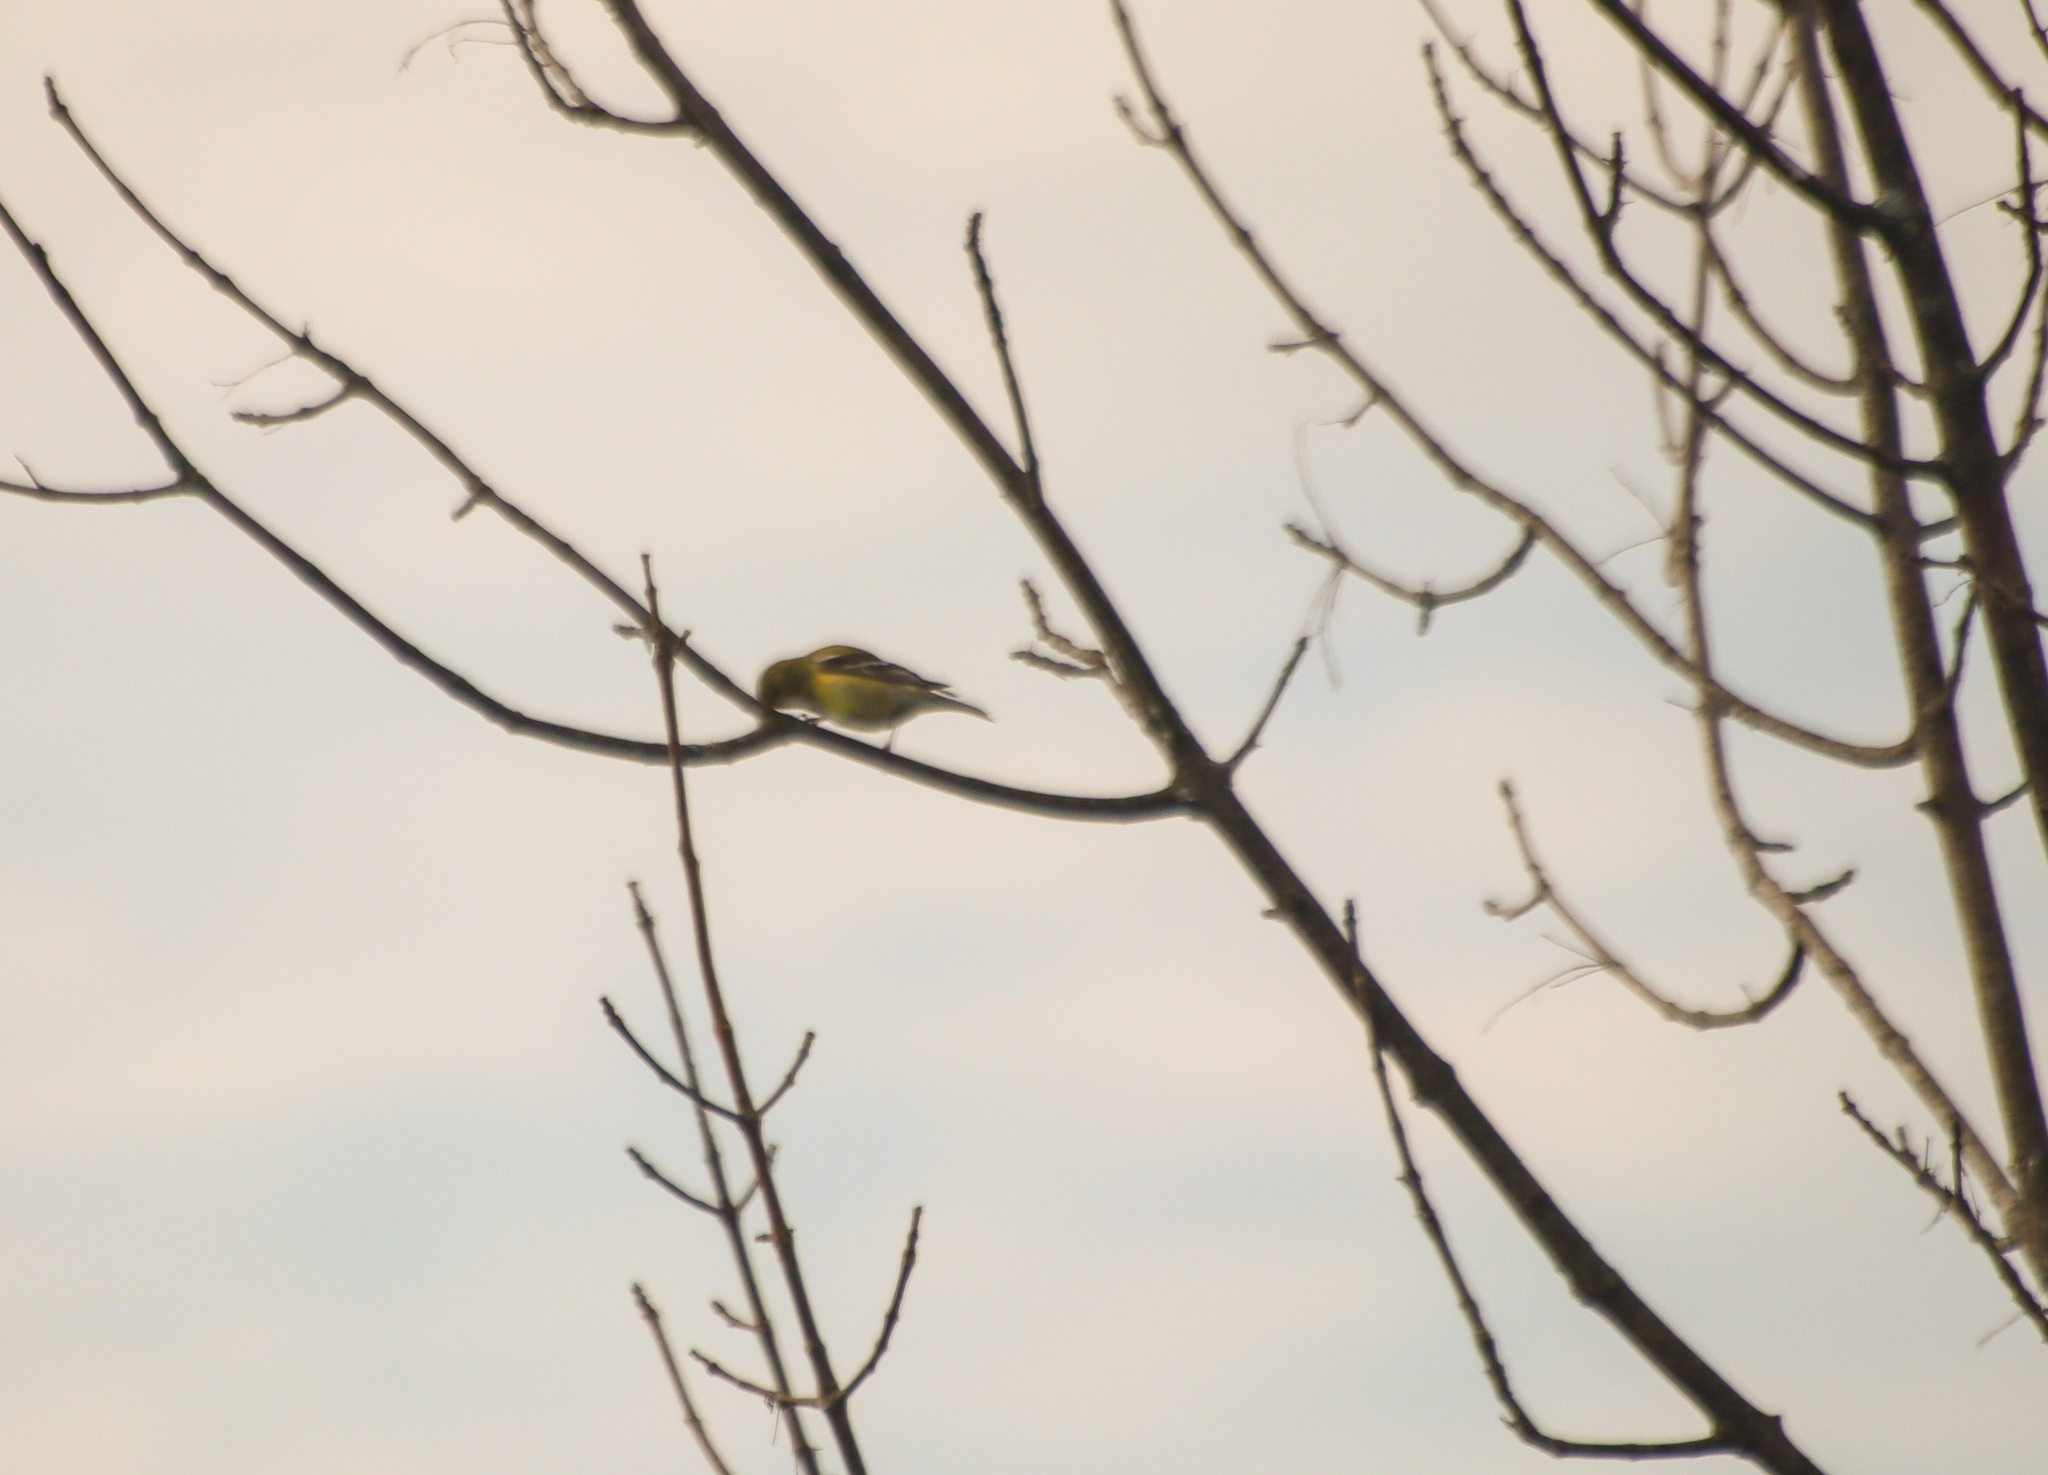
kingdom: Animalia
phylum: Chordata
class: Aves
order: Passeriformes
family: Fringillidae
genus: Spinus
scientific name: Spinus tristis
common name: American goldfinch
